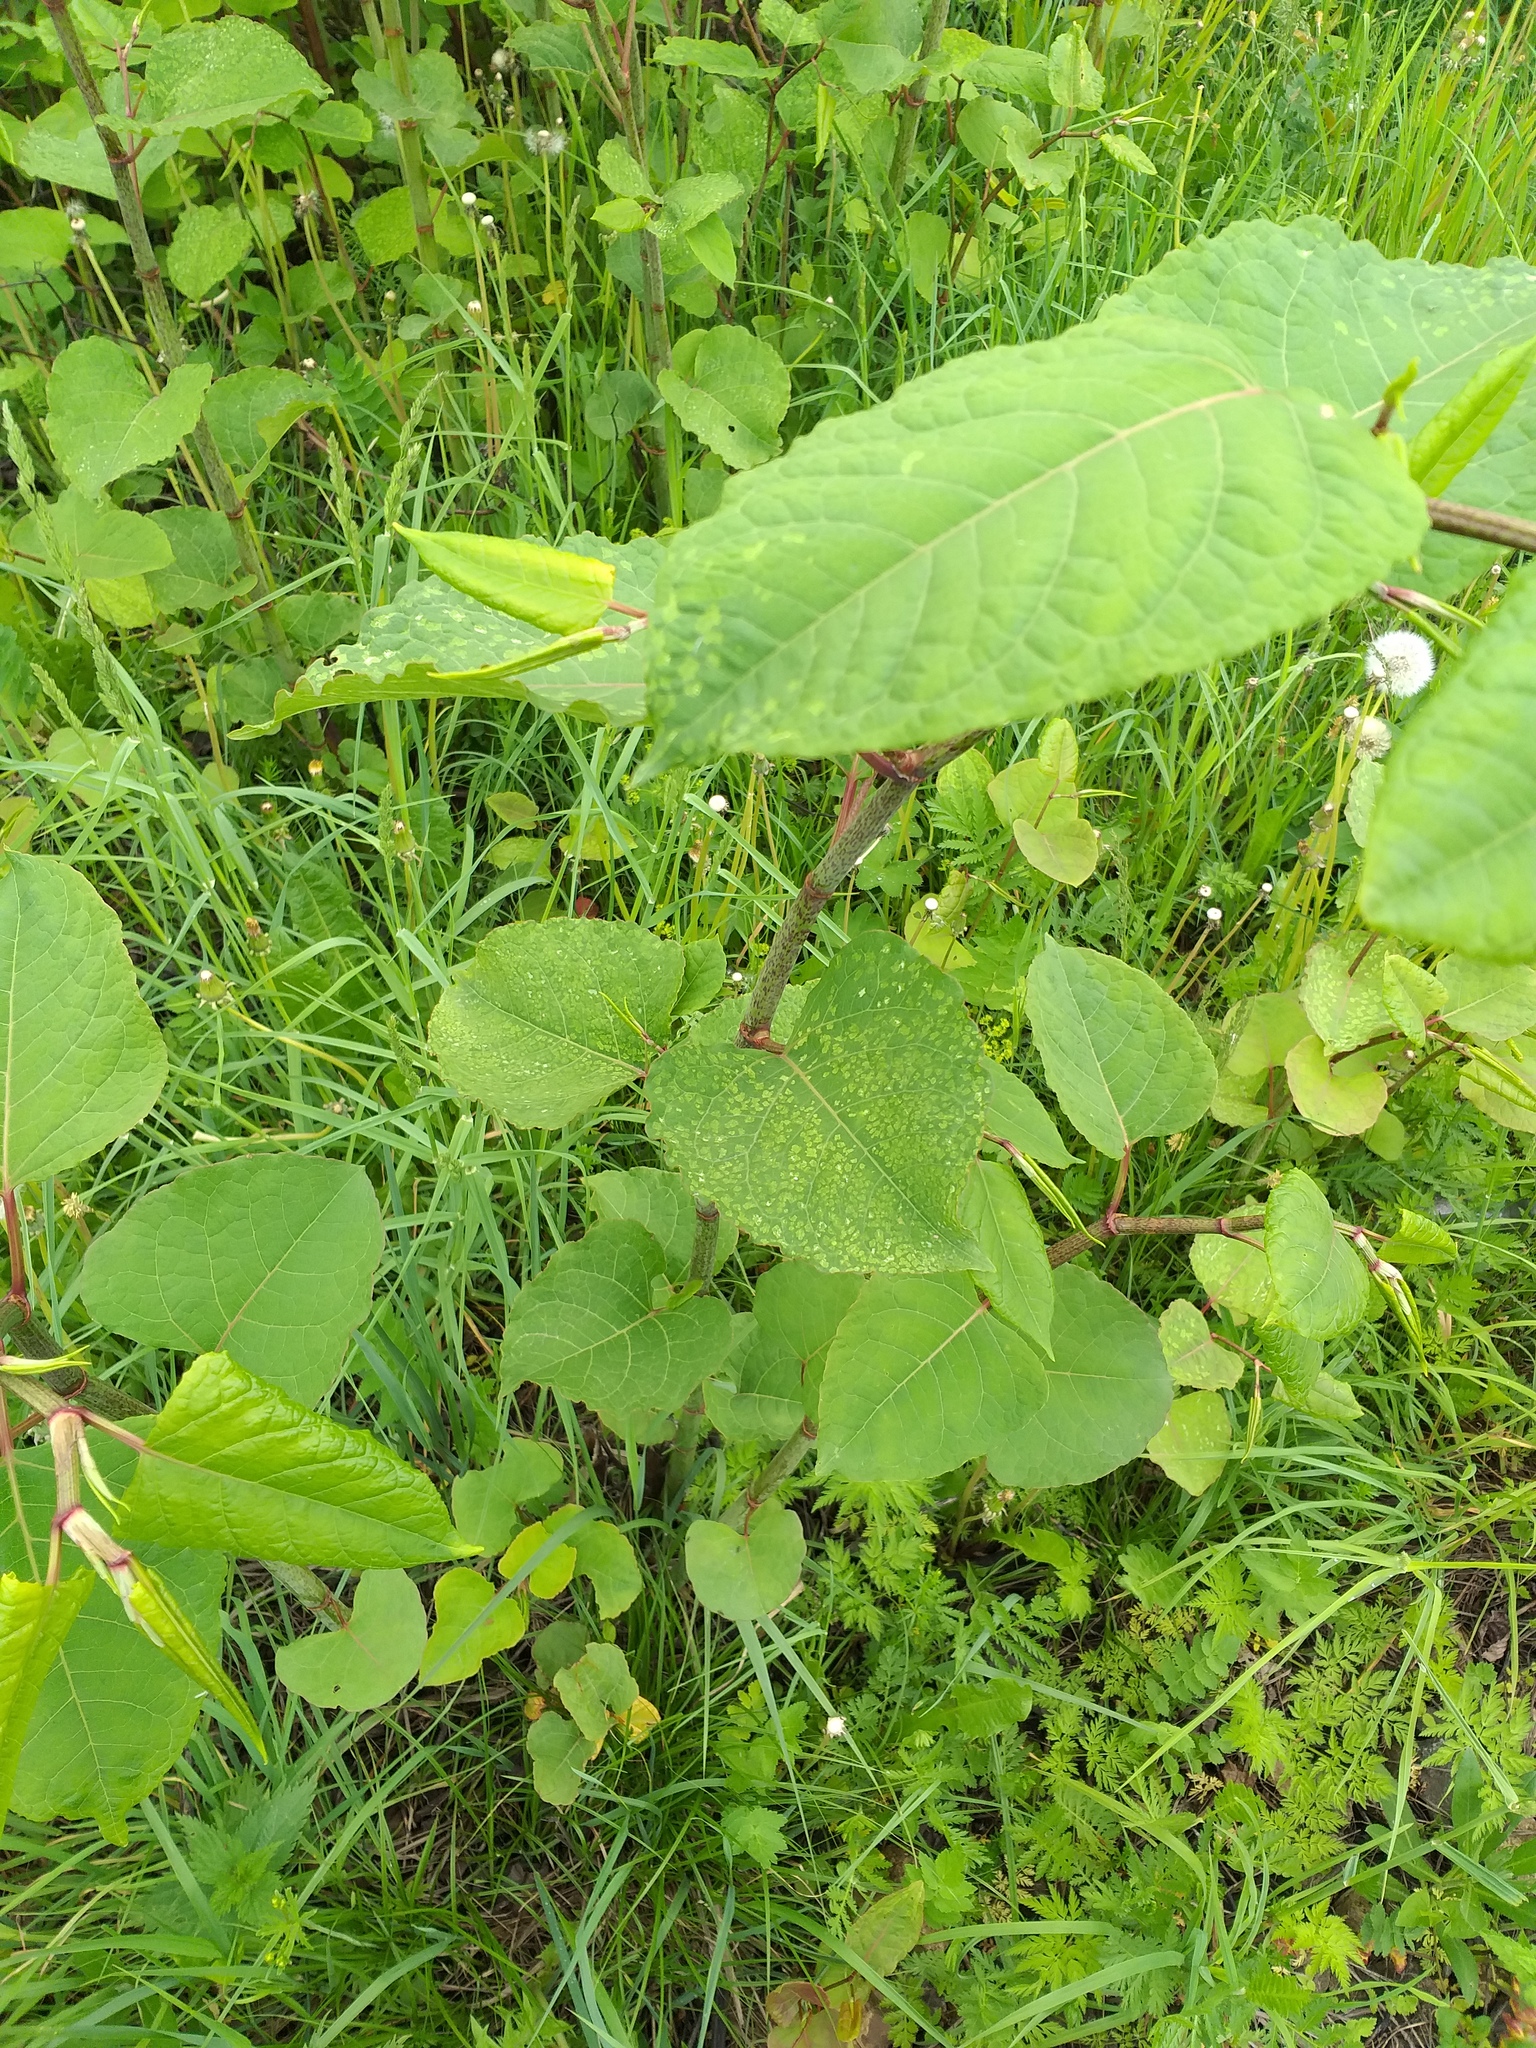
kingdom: Plantae
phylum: Tracheophyta
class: Magnoliopsida
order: Caryophyllales
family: Polygonaceae
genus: Reynoutria
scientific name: Reynoutria bohemica
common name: Bohemian knotweed
